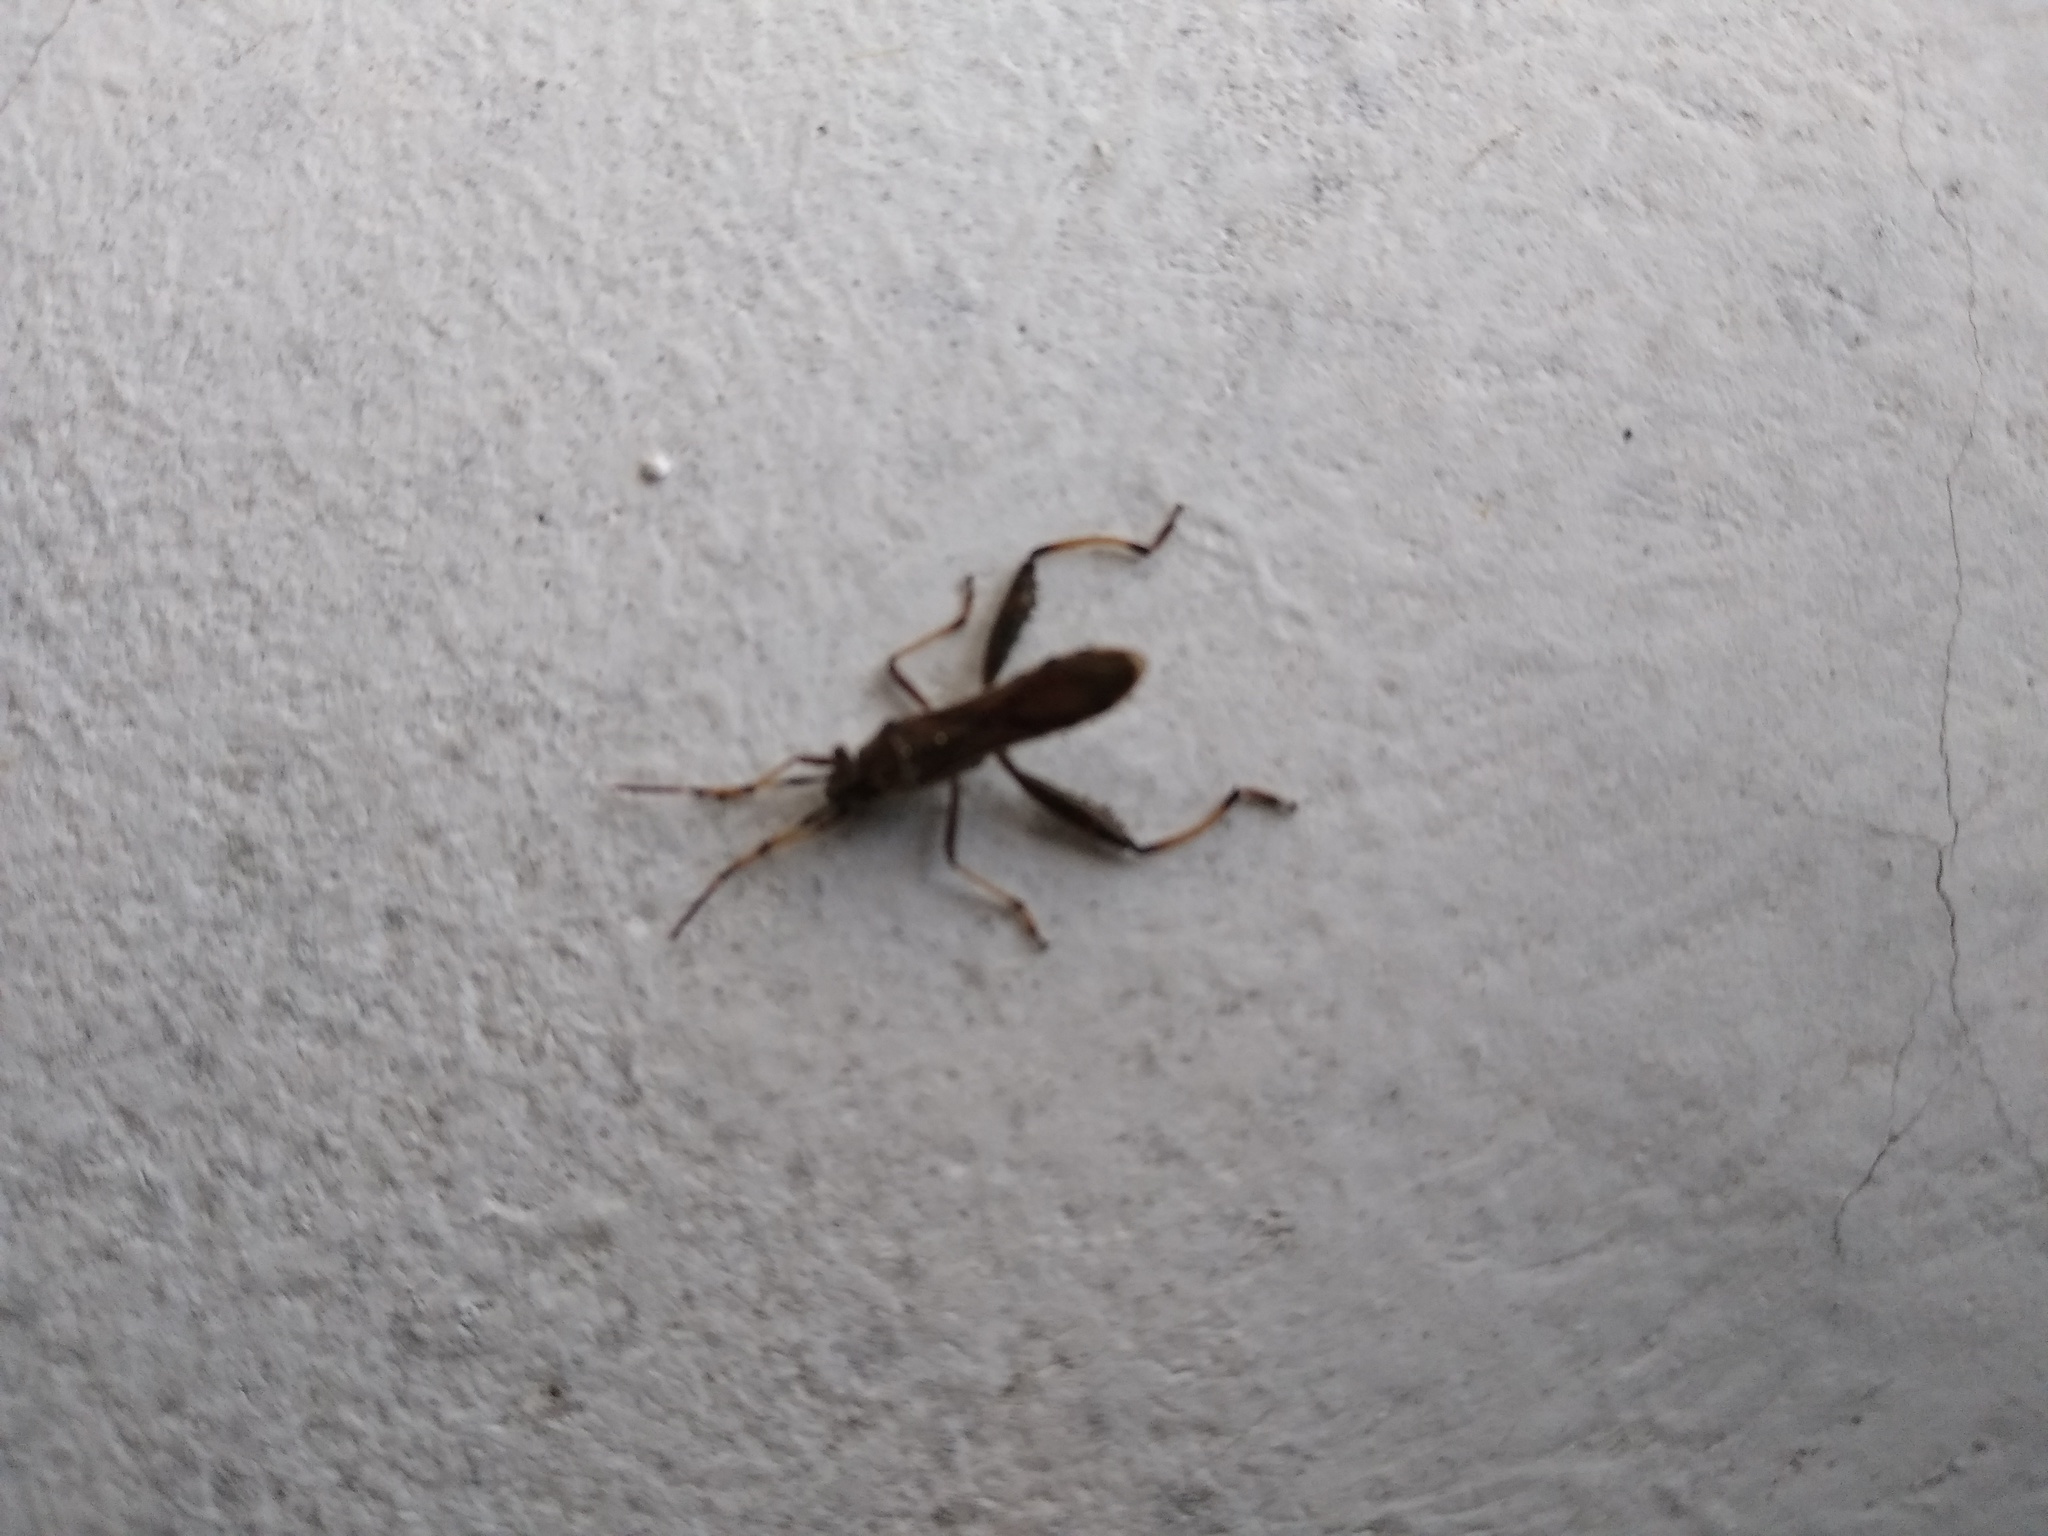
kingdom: Animalia
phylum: Arthropoda
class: Insecta
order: Hemiptera
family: Alydidae
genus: Camptopus
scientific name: Camptopus lateralis
